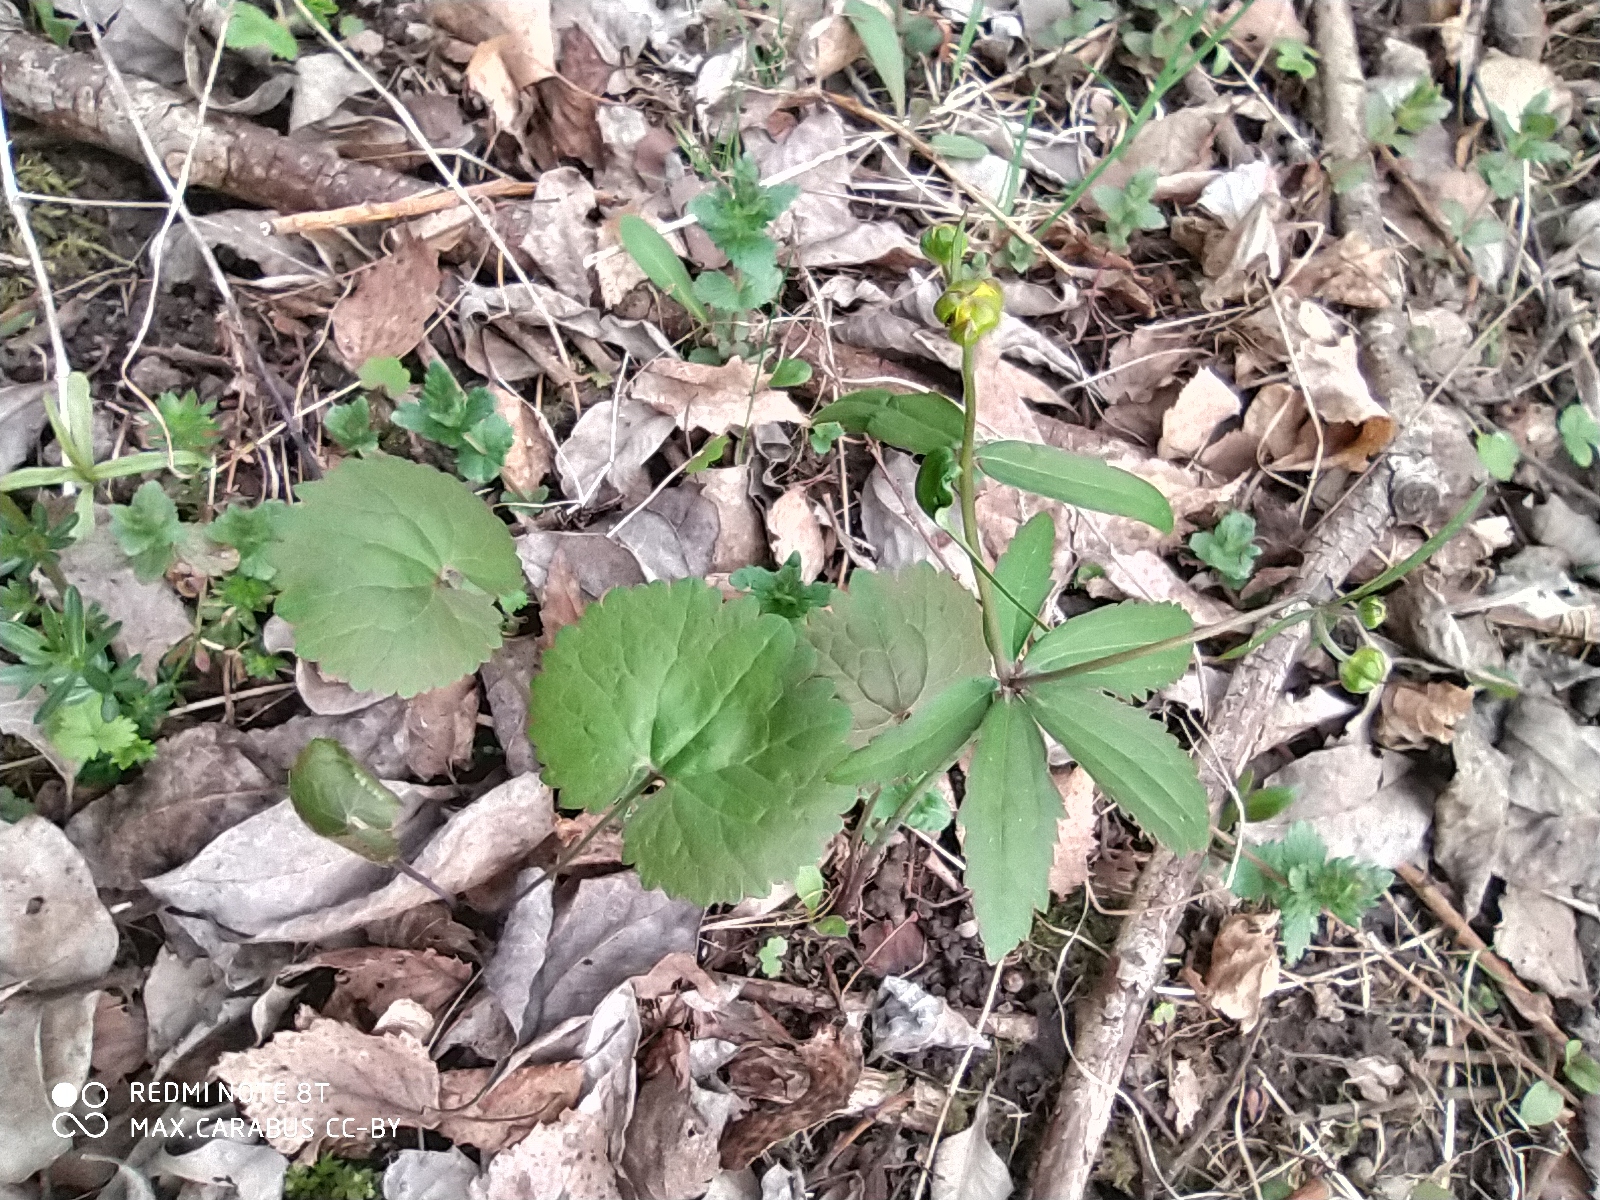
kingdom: Plantae
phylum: Tracheophyta
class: Magnoliopsida
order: Ranunculales
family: Ranunculaceae
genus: Ranunculus
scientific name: Ranunculus cassubicus
